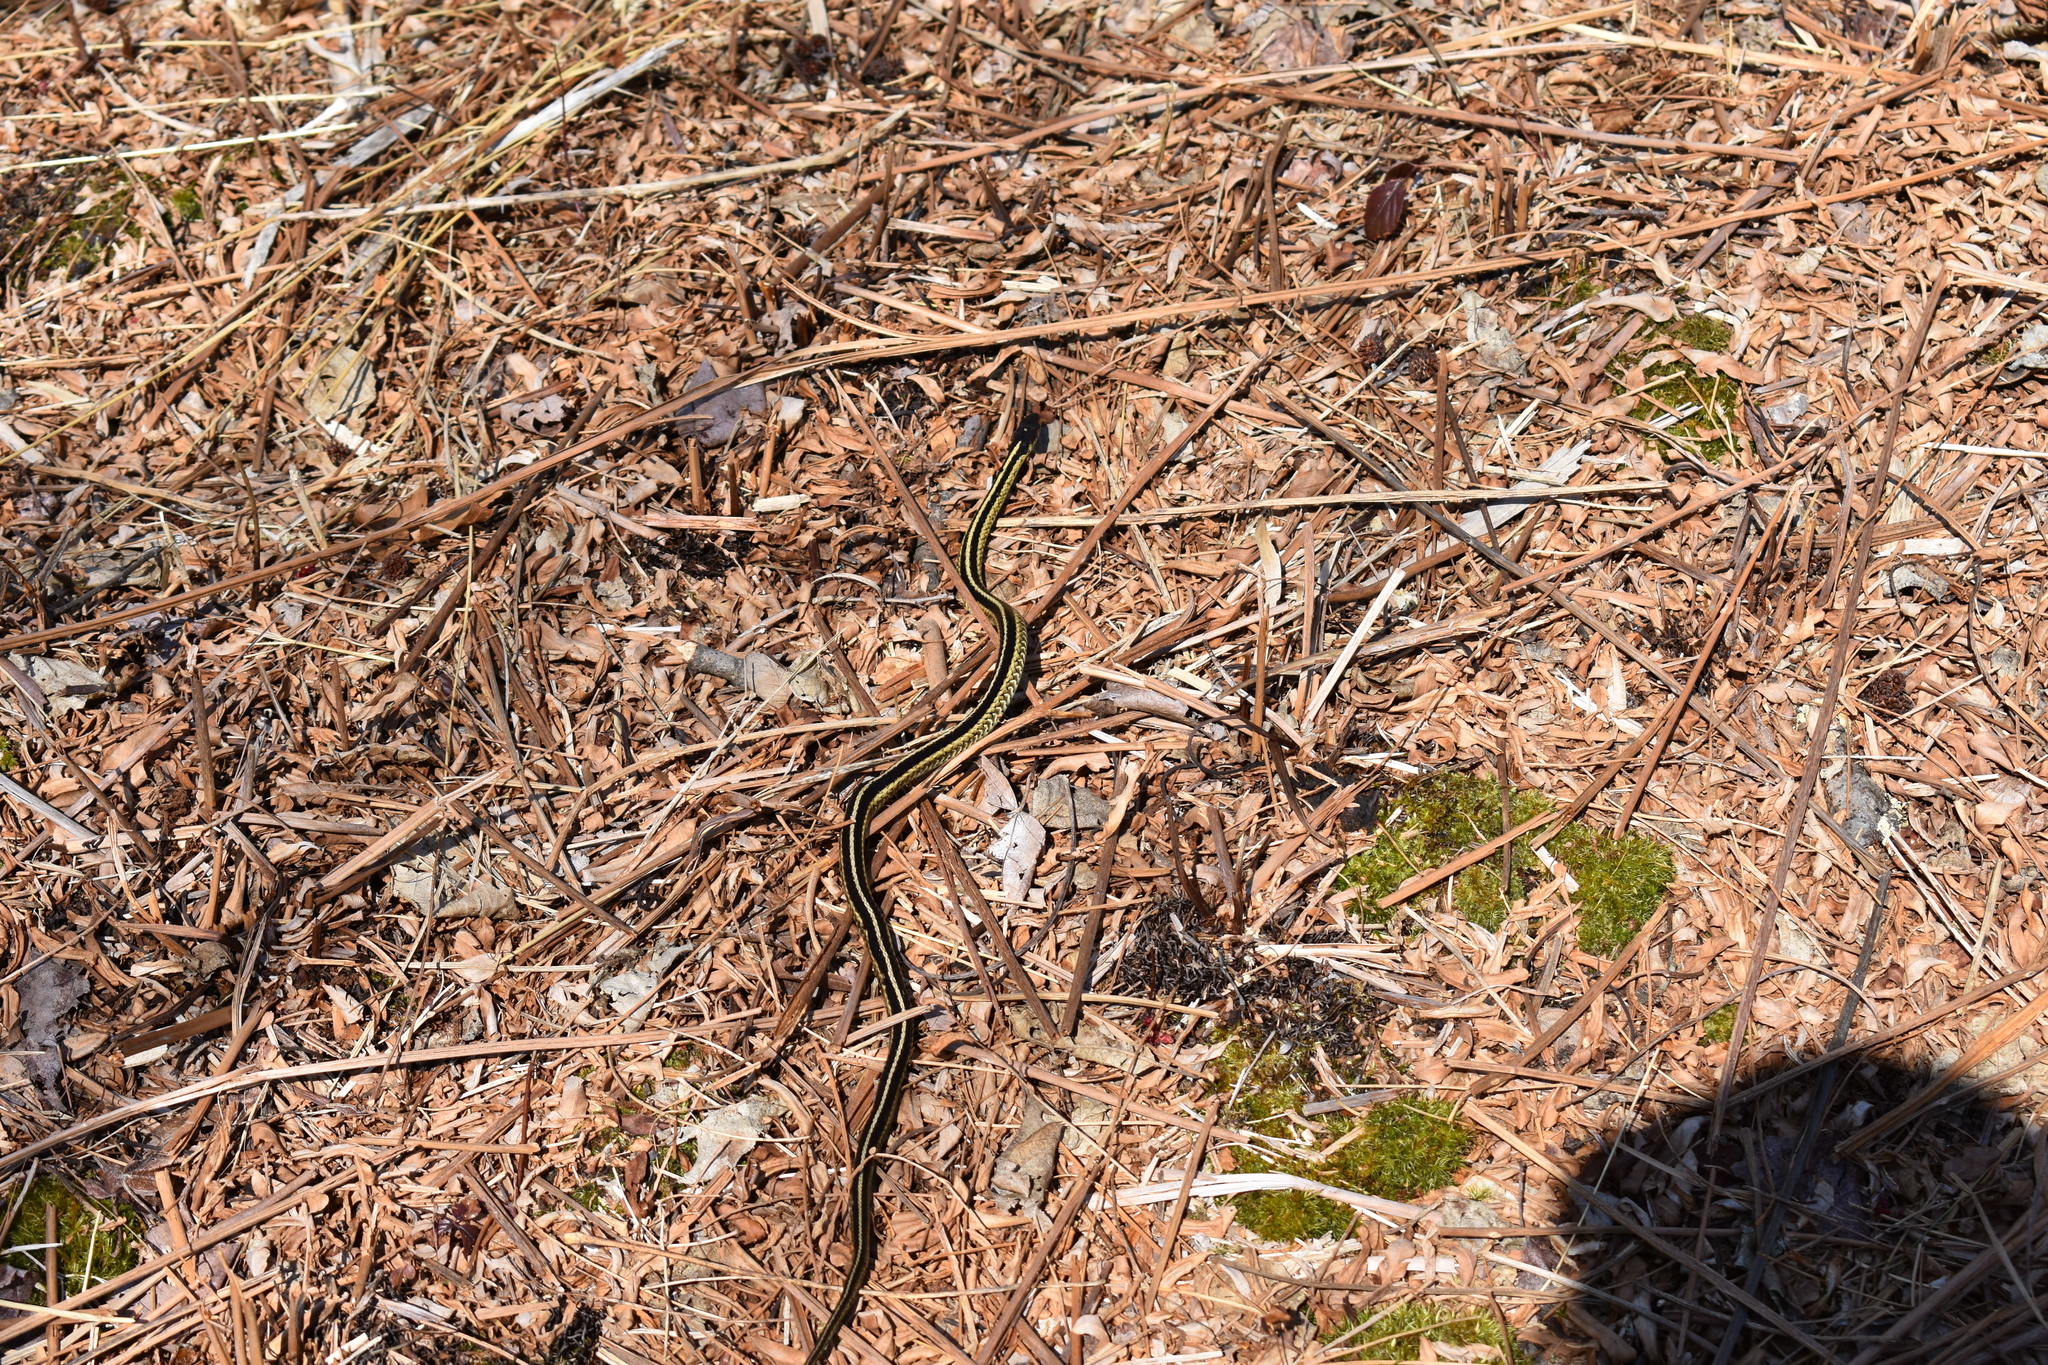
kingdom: Animalia
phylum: Chordata
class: Squamata
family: Colubridae
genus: Thamnophis
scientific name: Thamnophis sirtalis
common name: Common garter snake
